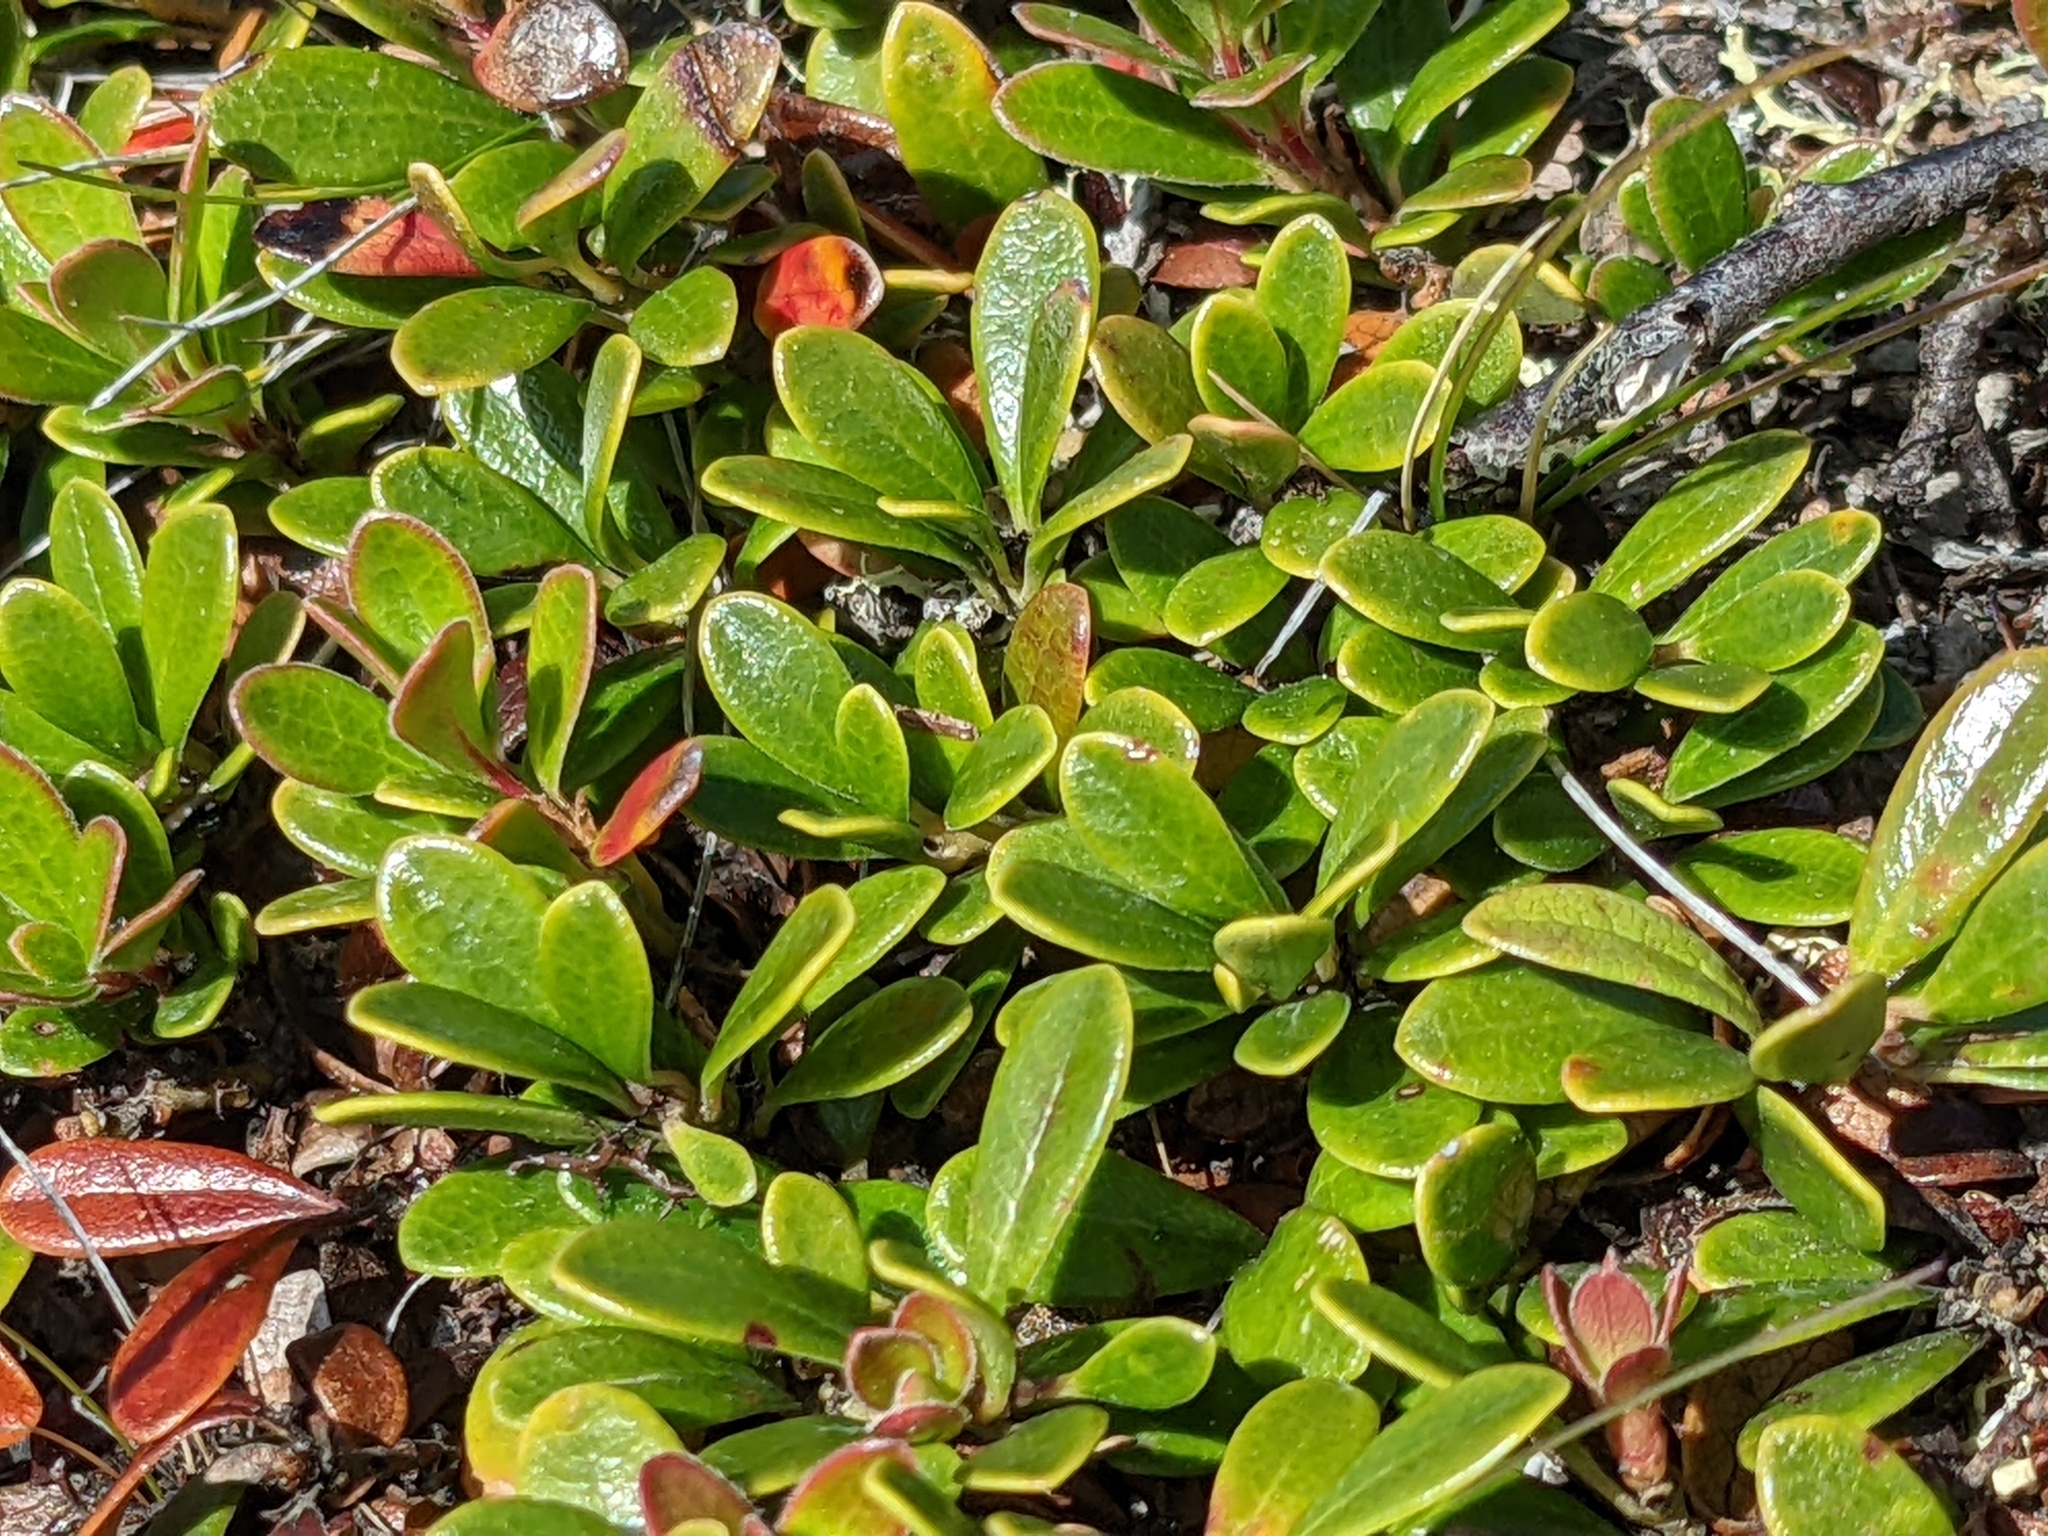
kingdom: Plantae
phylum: Tracheophyta
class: Magnoliopsida
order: Ericales
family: Ericaceae
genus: Arctostaphylos
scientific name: Arctostaphylos uva-ursi
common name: Bearberry
